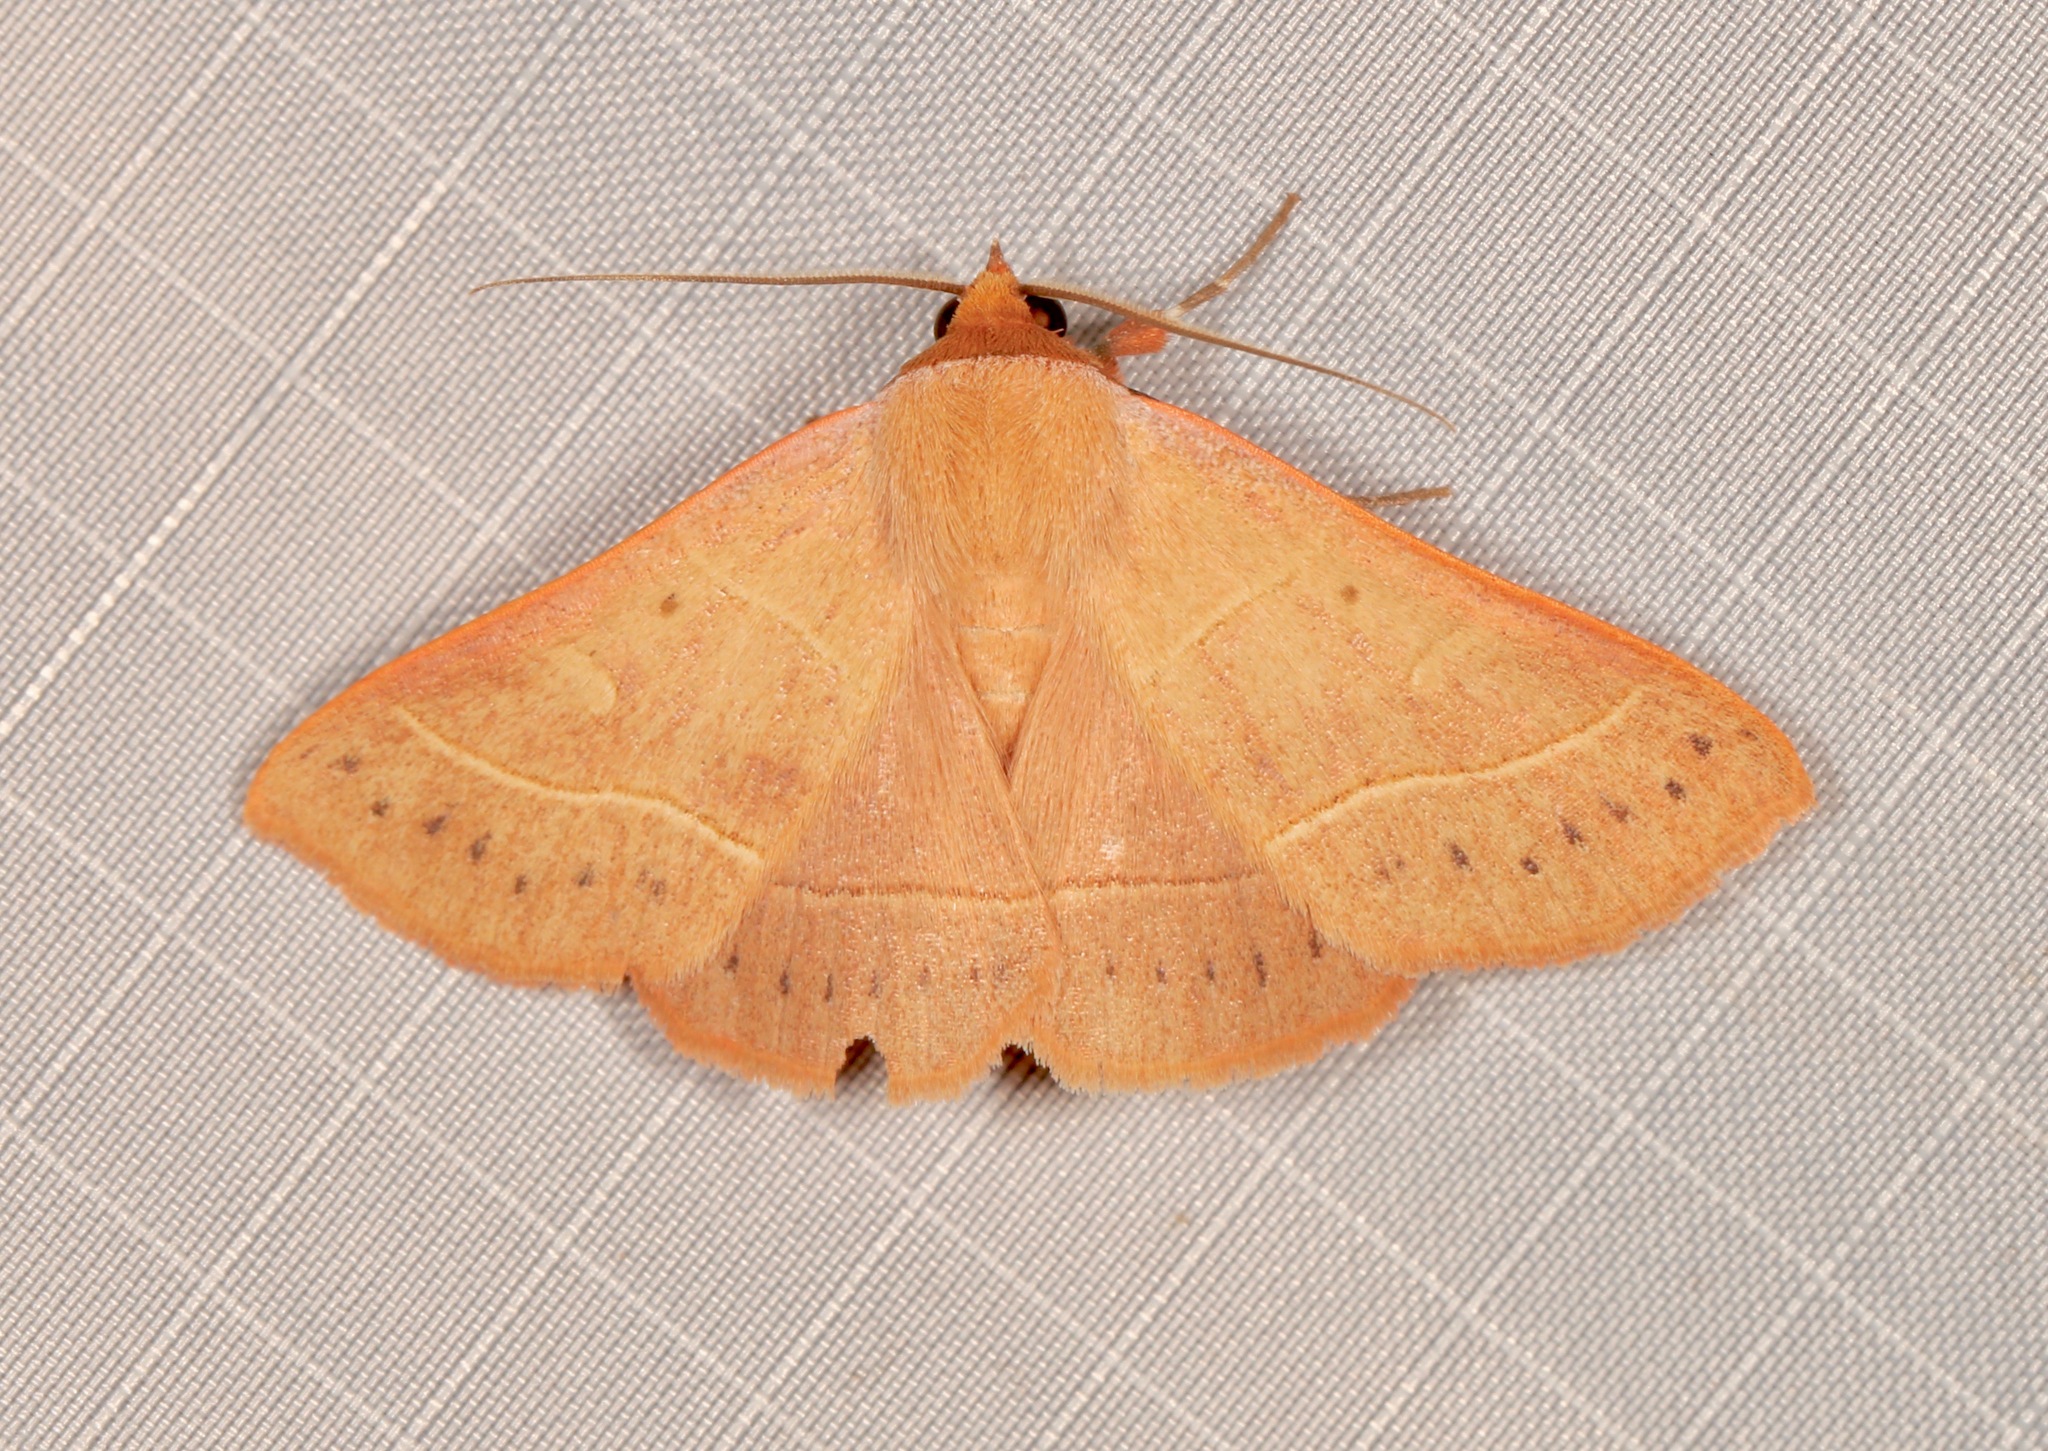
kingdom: Animalia
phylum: Arthropoda
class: Insecta
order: Lepidoptera
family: Erebidae
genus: Panopoda
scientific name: Panopoda rufimargo
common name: Red-lined panopoda moth
